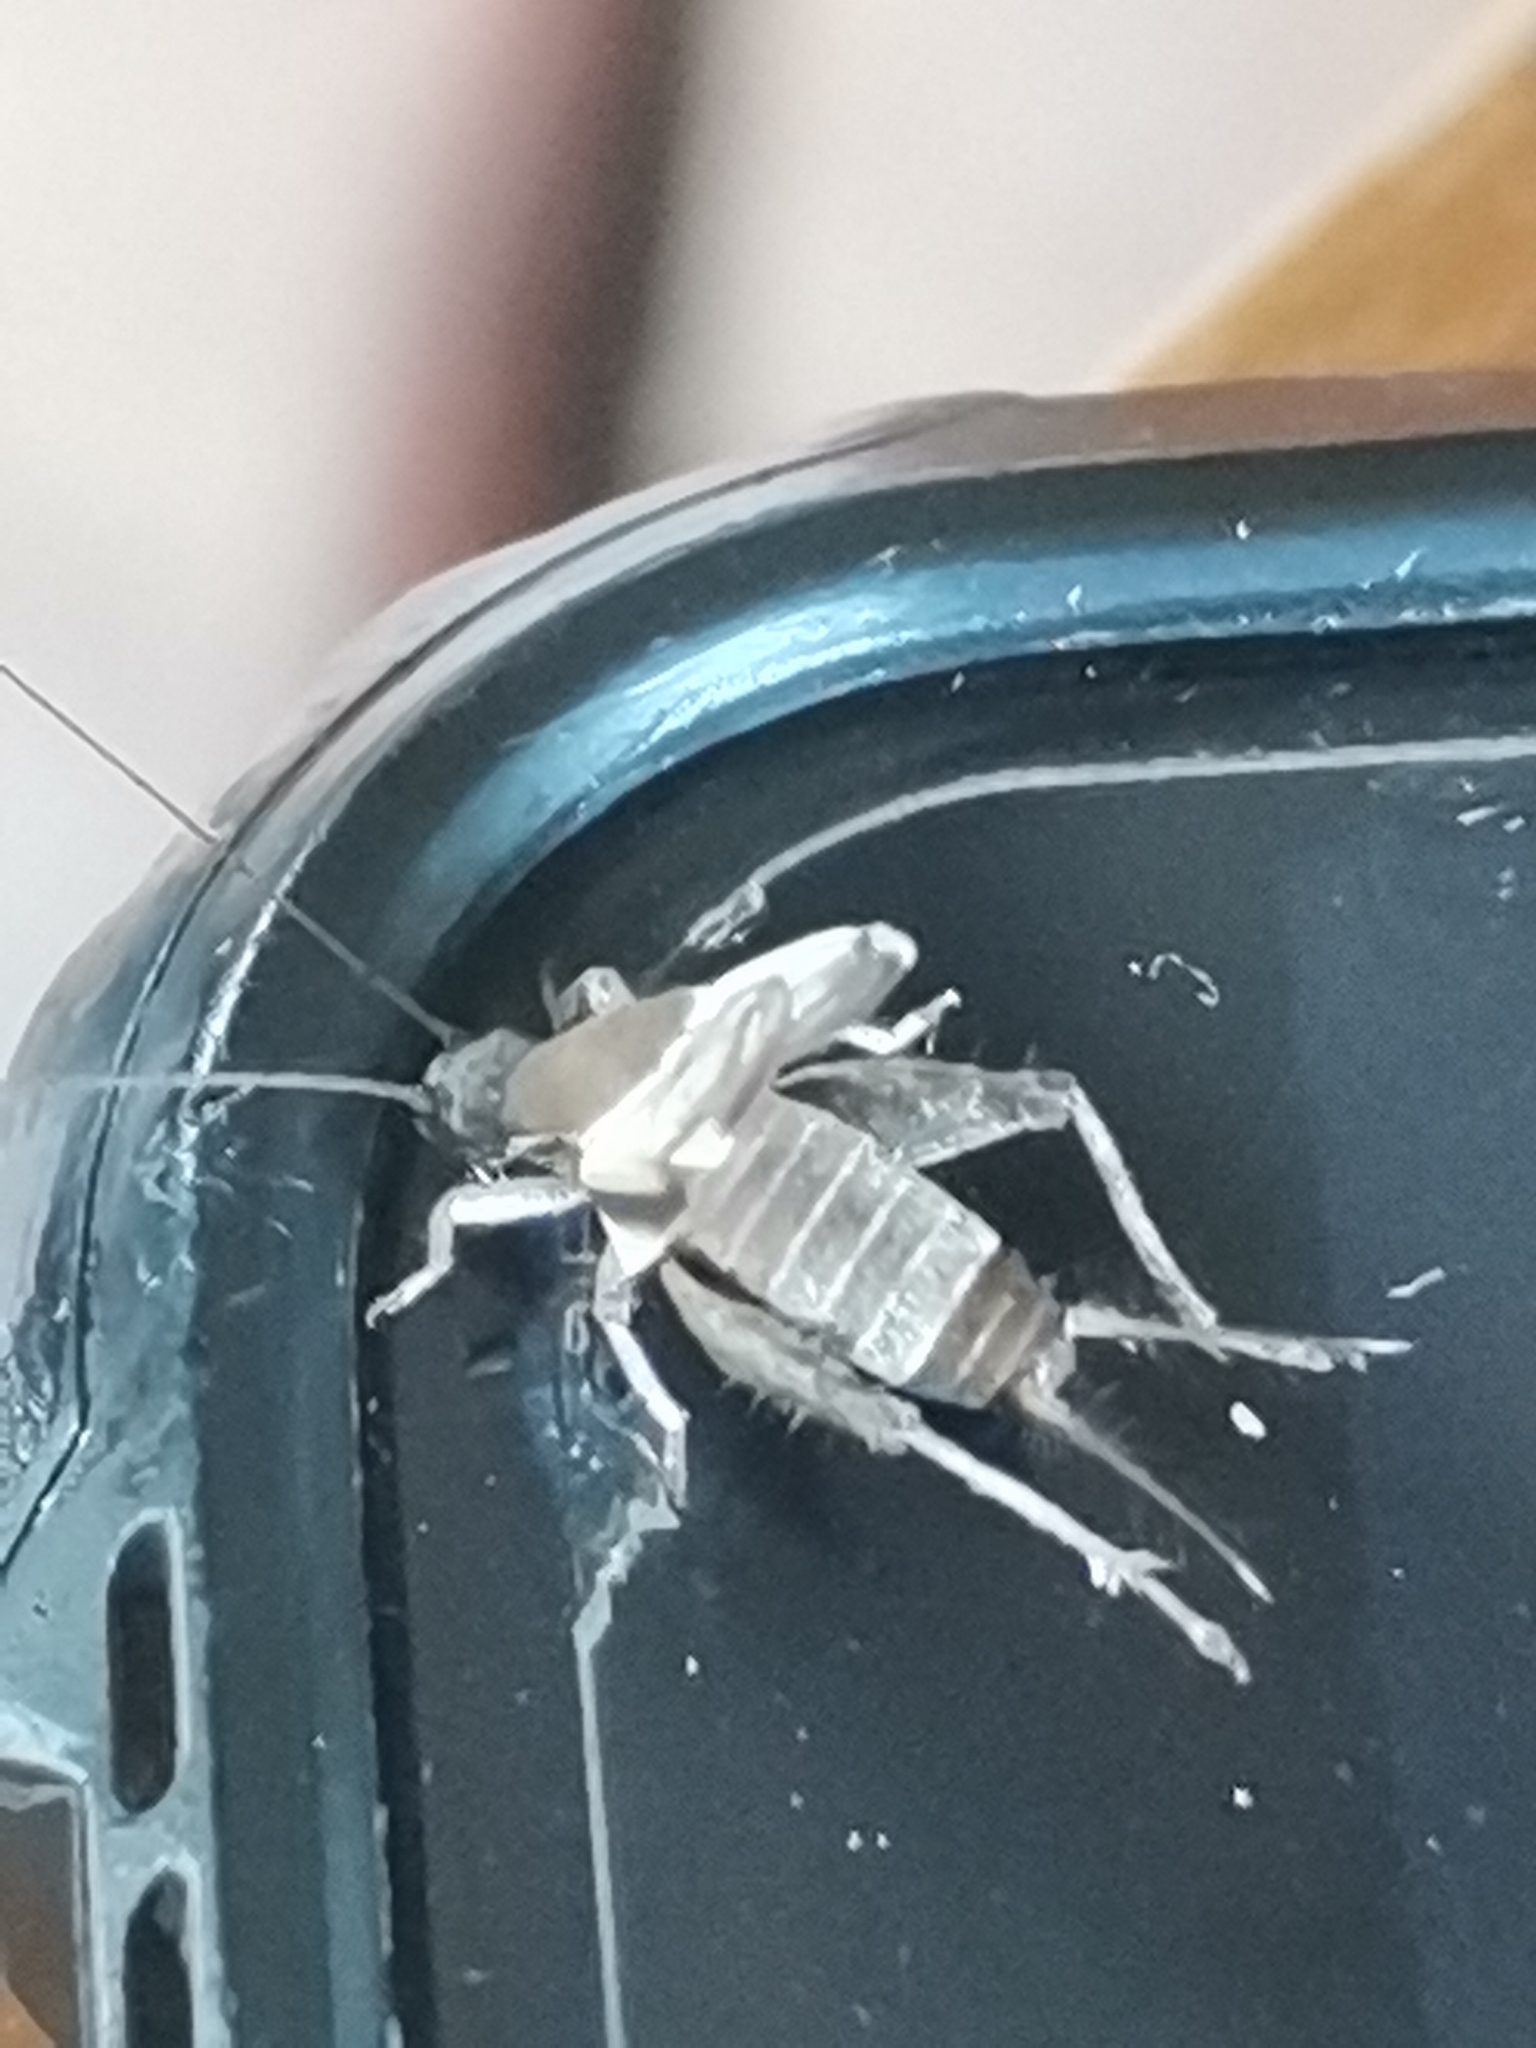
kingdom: Animalia
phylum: Arthropoda
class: Insecta
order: Orthoptera
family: Mogoplistidae
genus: Ornebius
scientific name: Ornebius alatus
